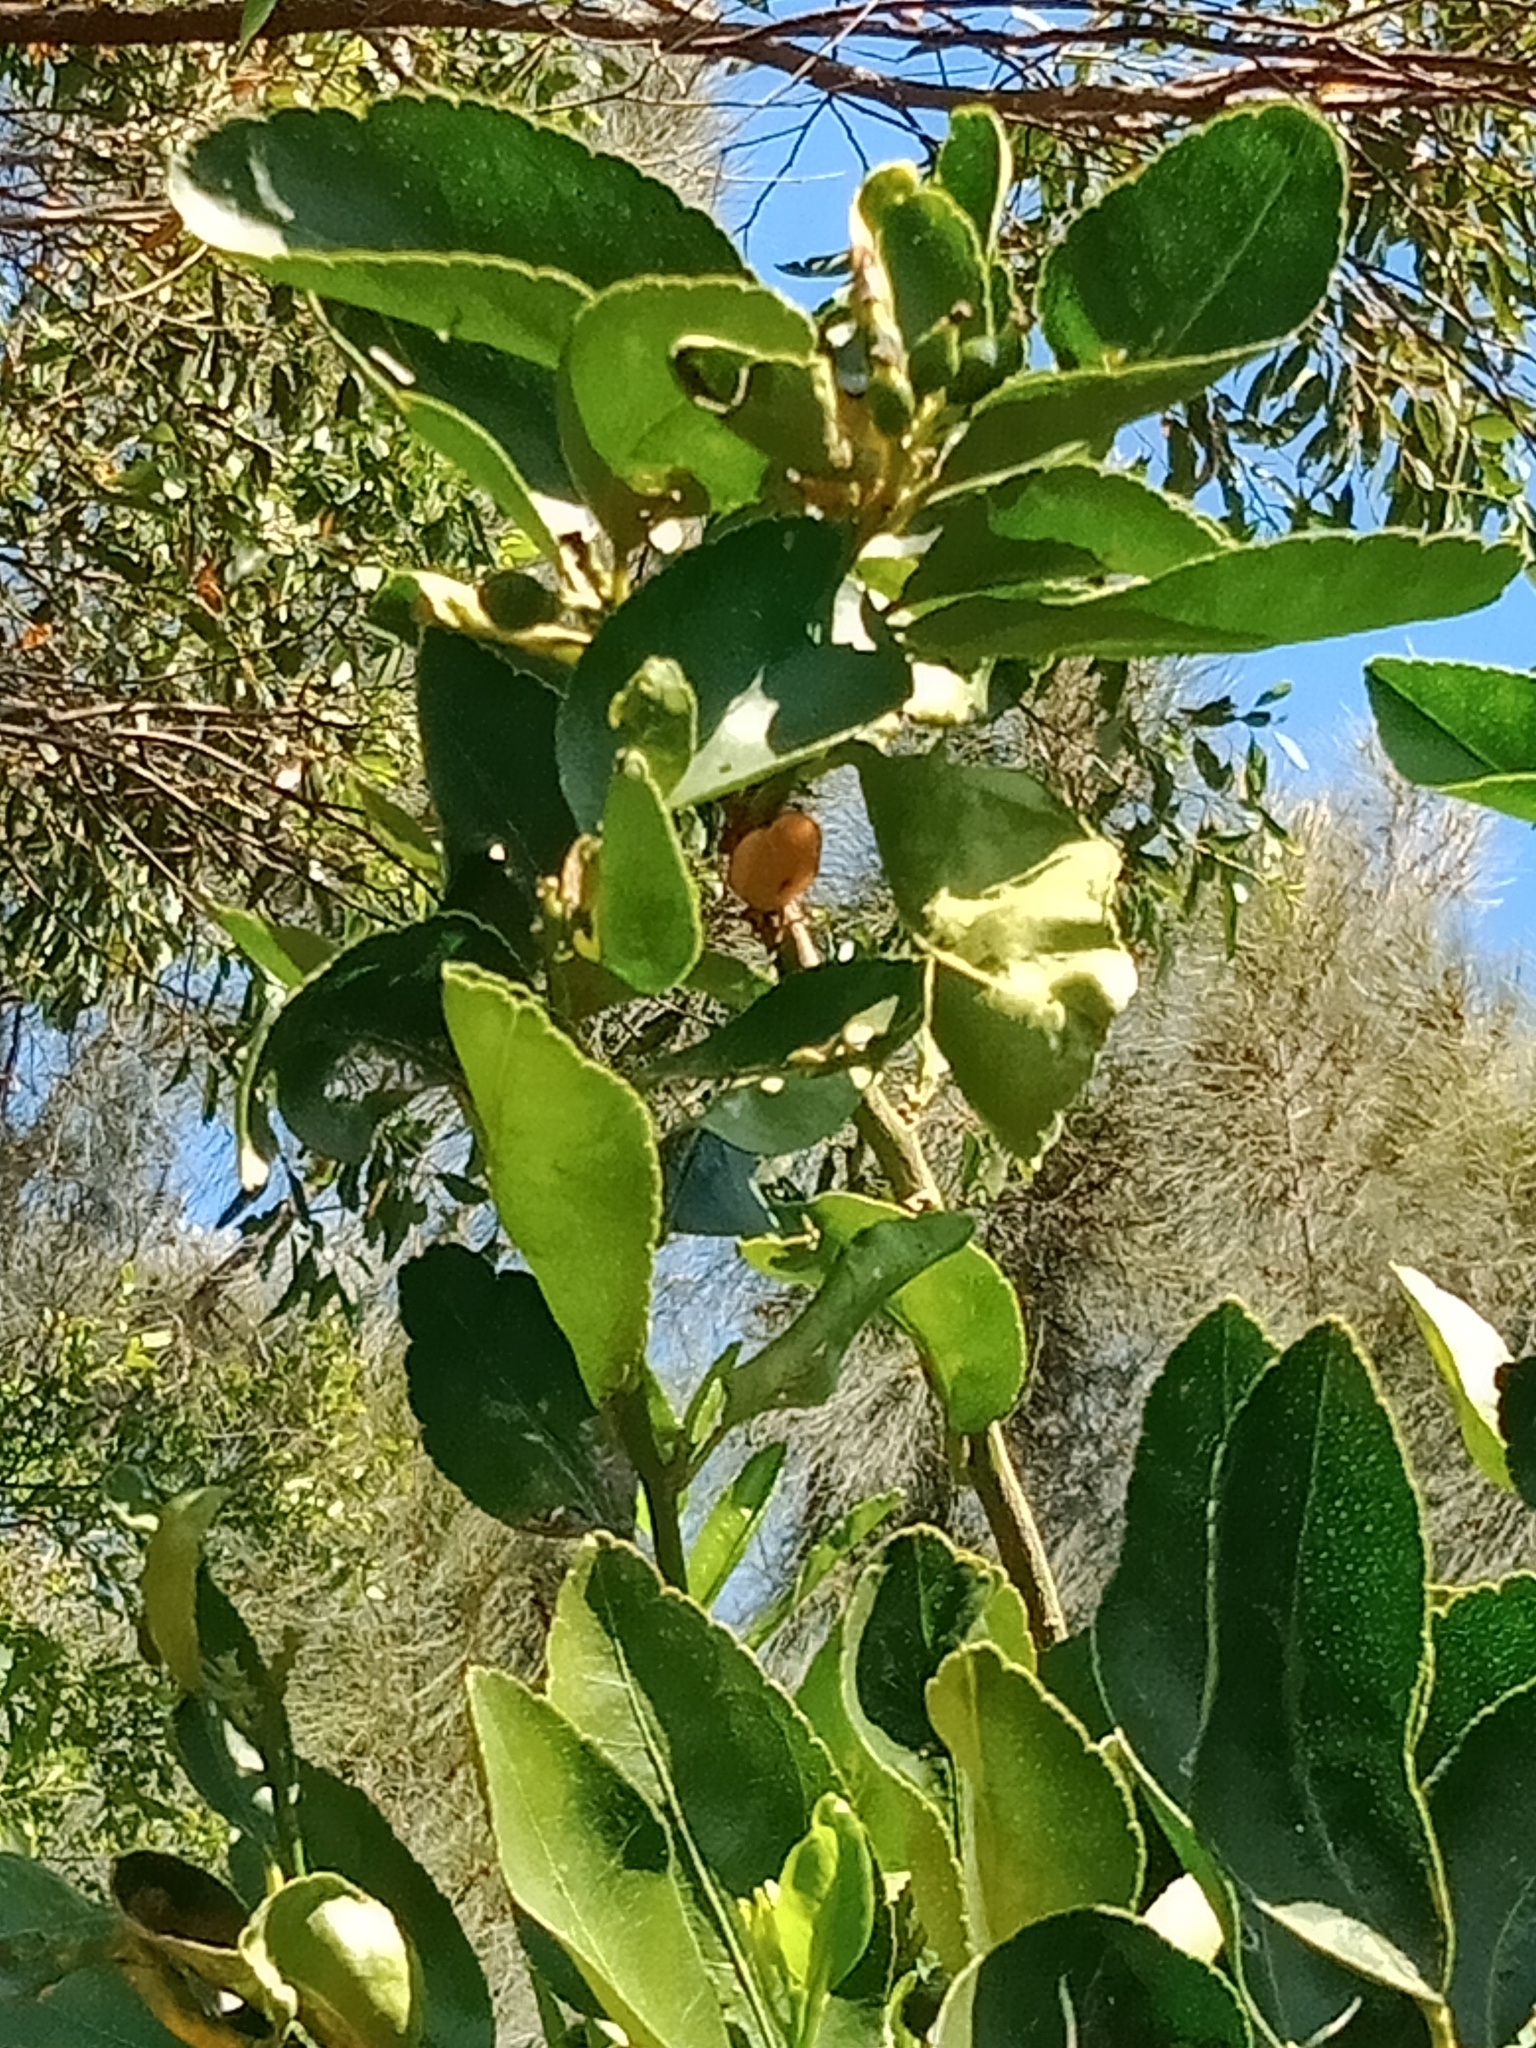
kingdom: Animalia
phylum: Arthropoda
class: Insecta
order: Hemiptera
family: Tessaratomidae
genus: Musgraveia
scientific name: Musgraveia sulciventris
